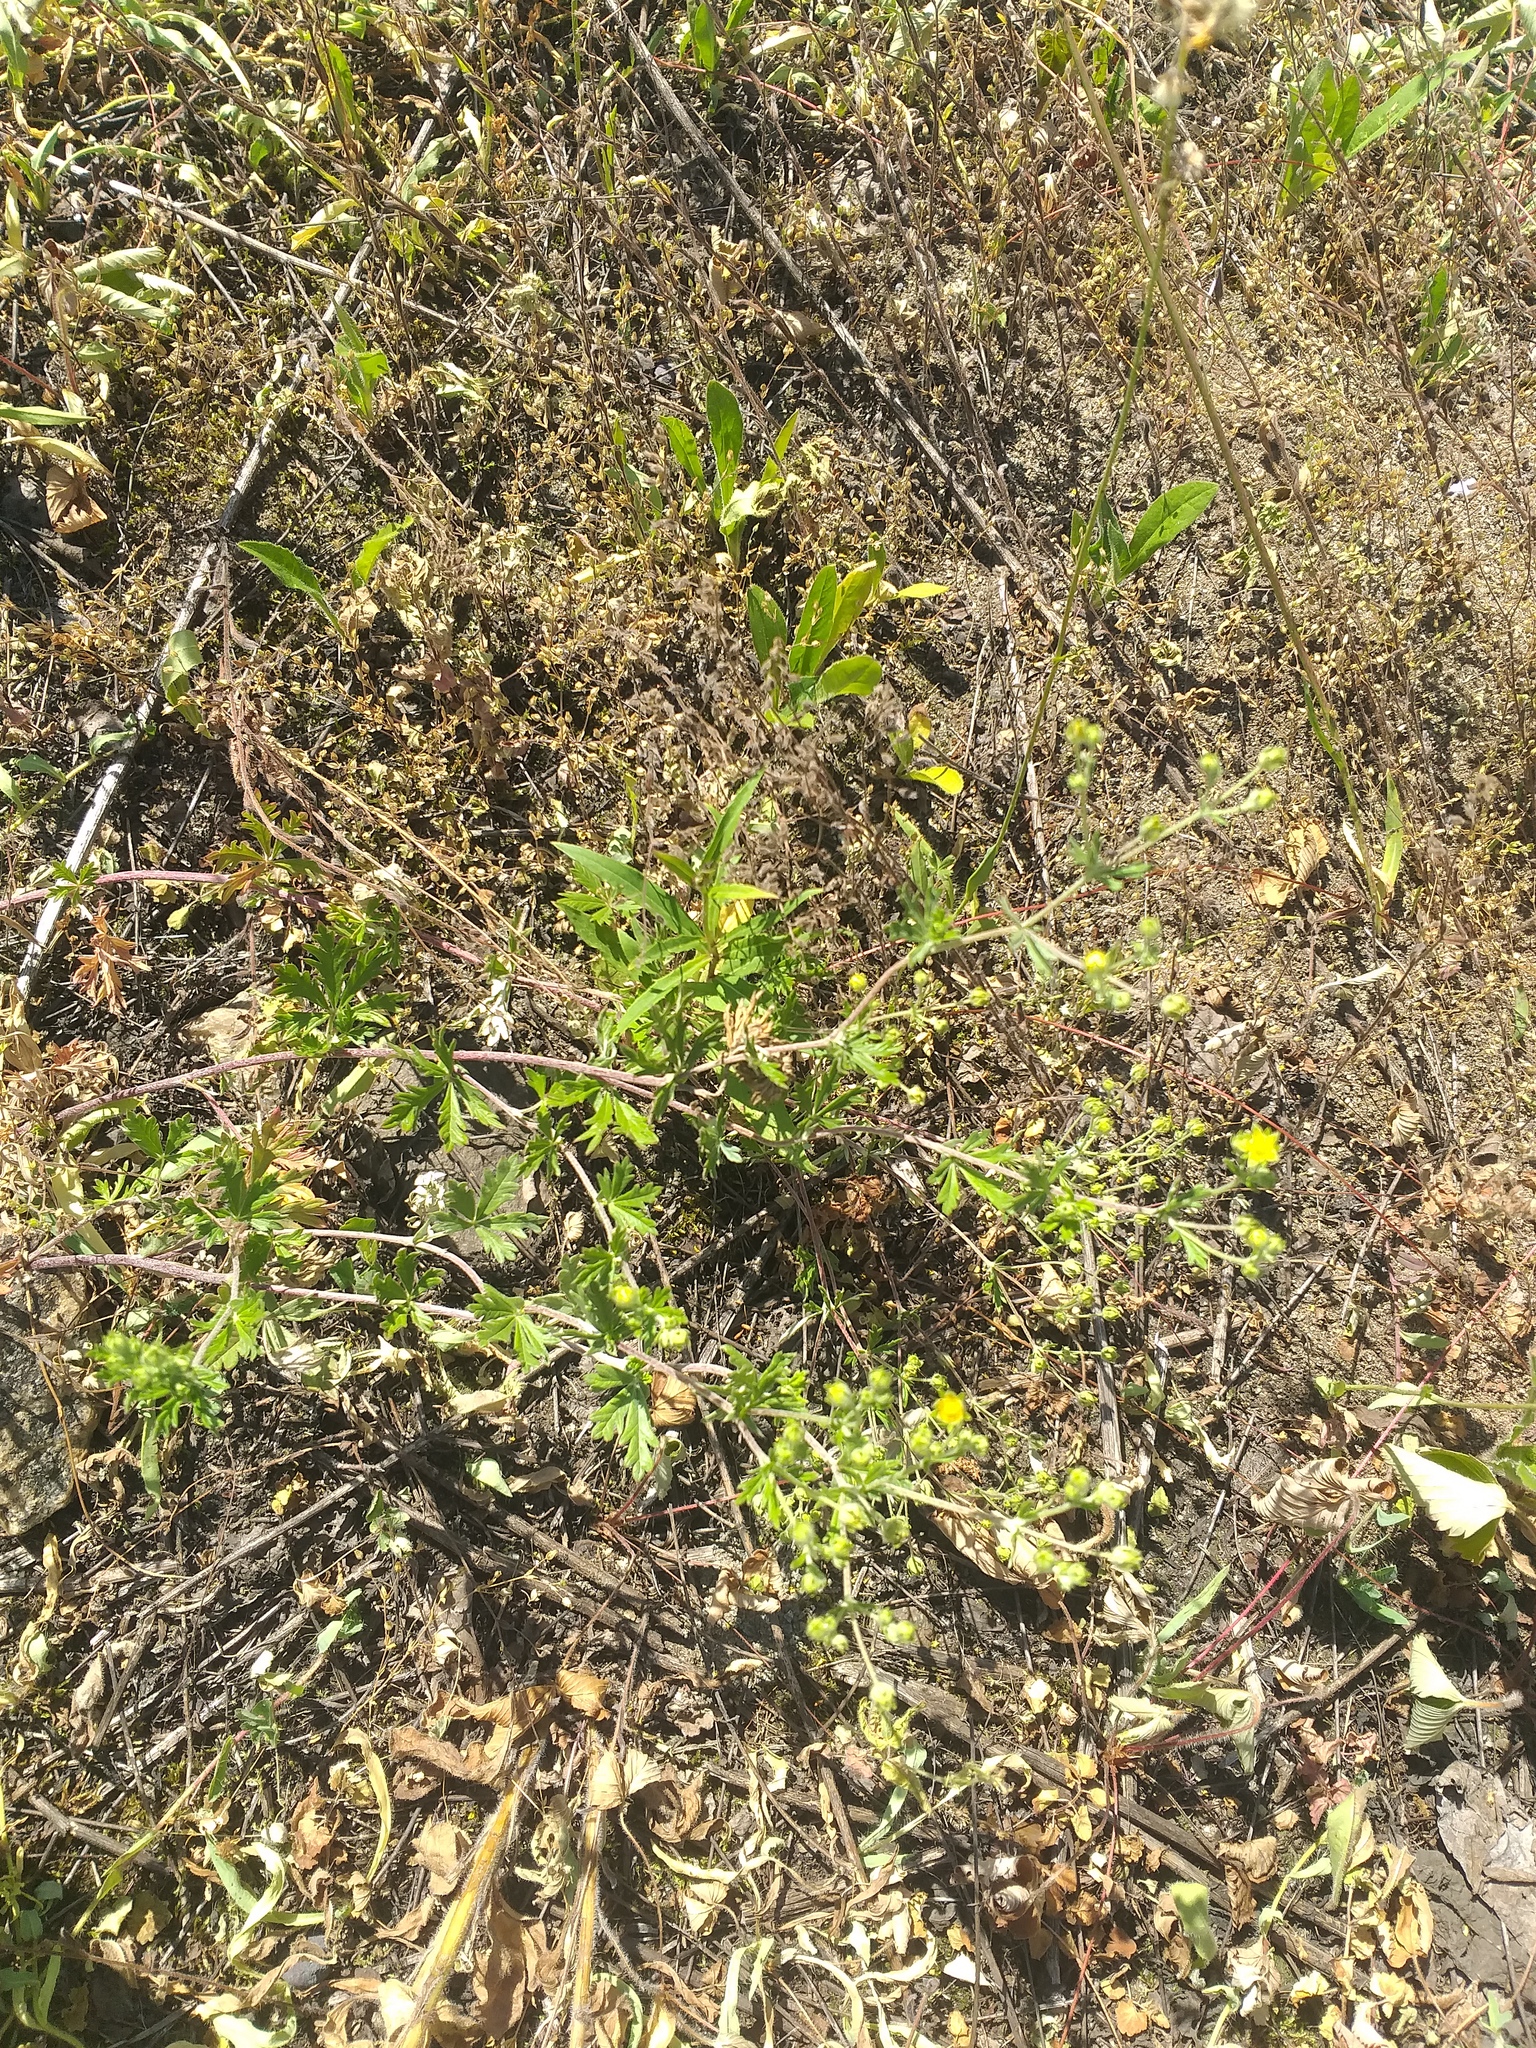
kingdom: Plantae
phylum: Tracheophyta
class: Magnoliopsida
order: Rosales
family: Rosaceae
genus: Potentilla
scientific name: Potentilla argentea
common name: Hoary cinquefoil
